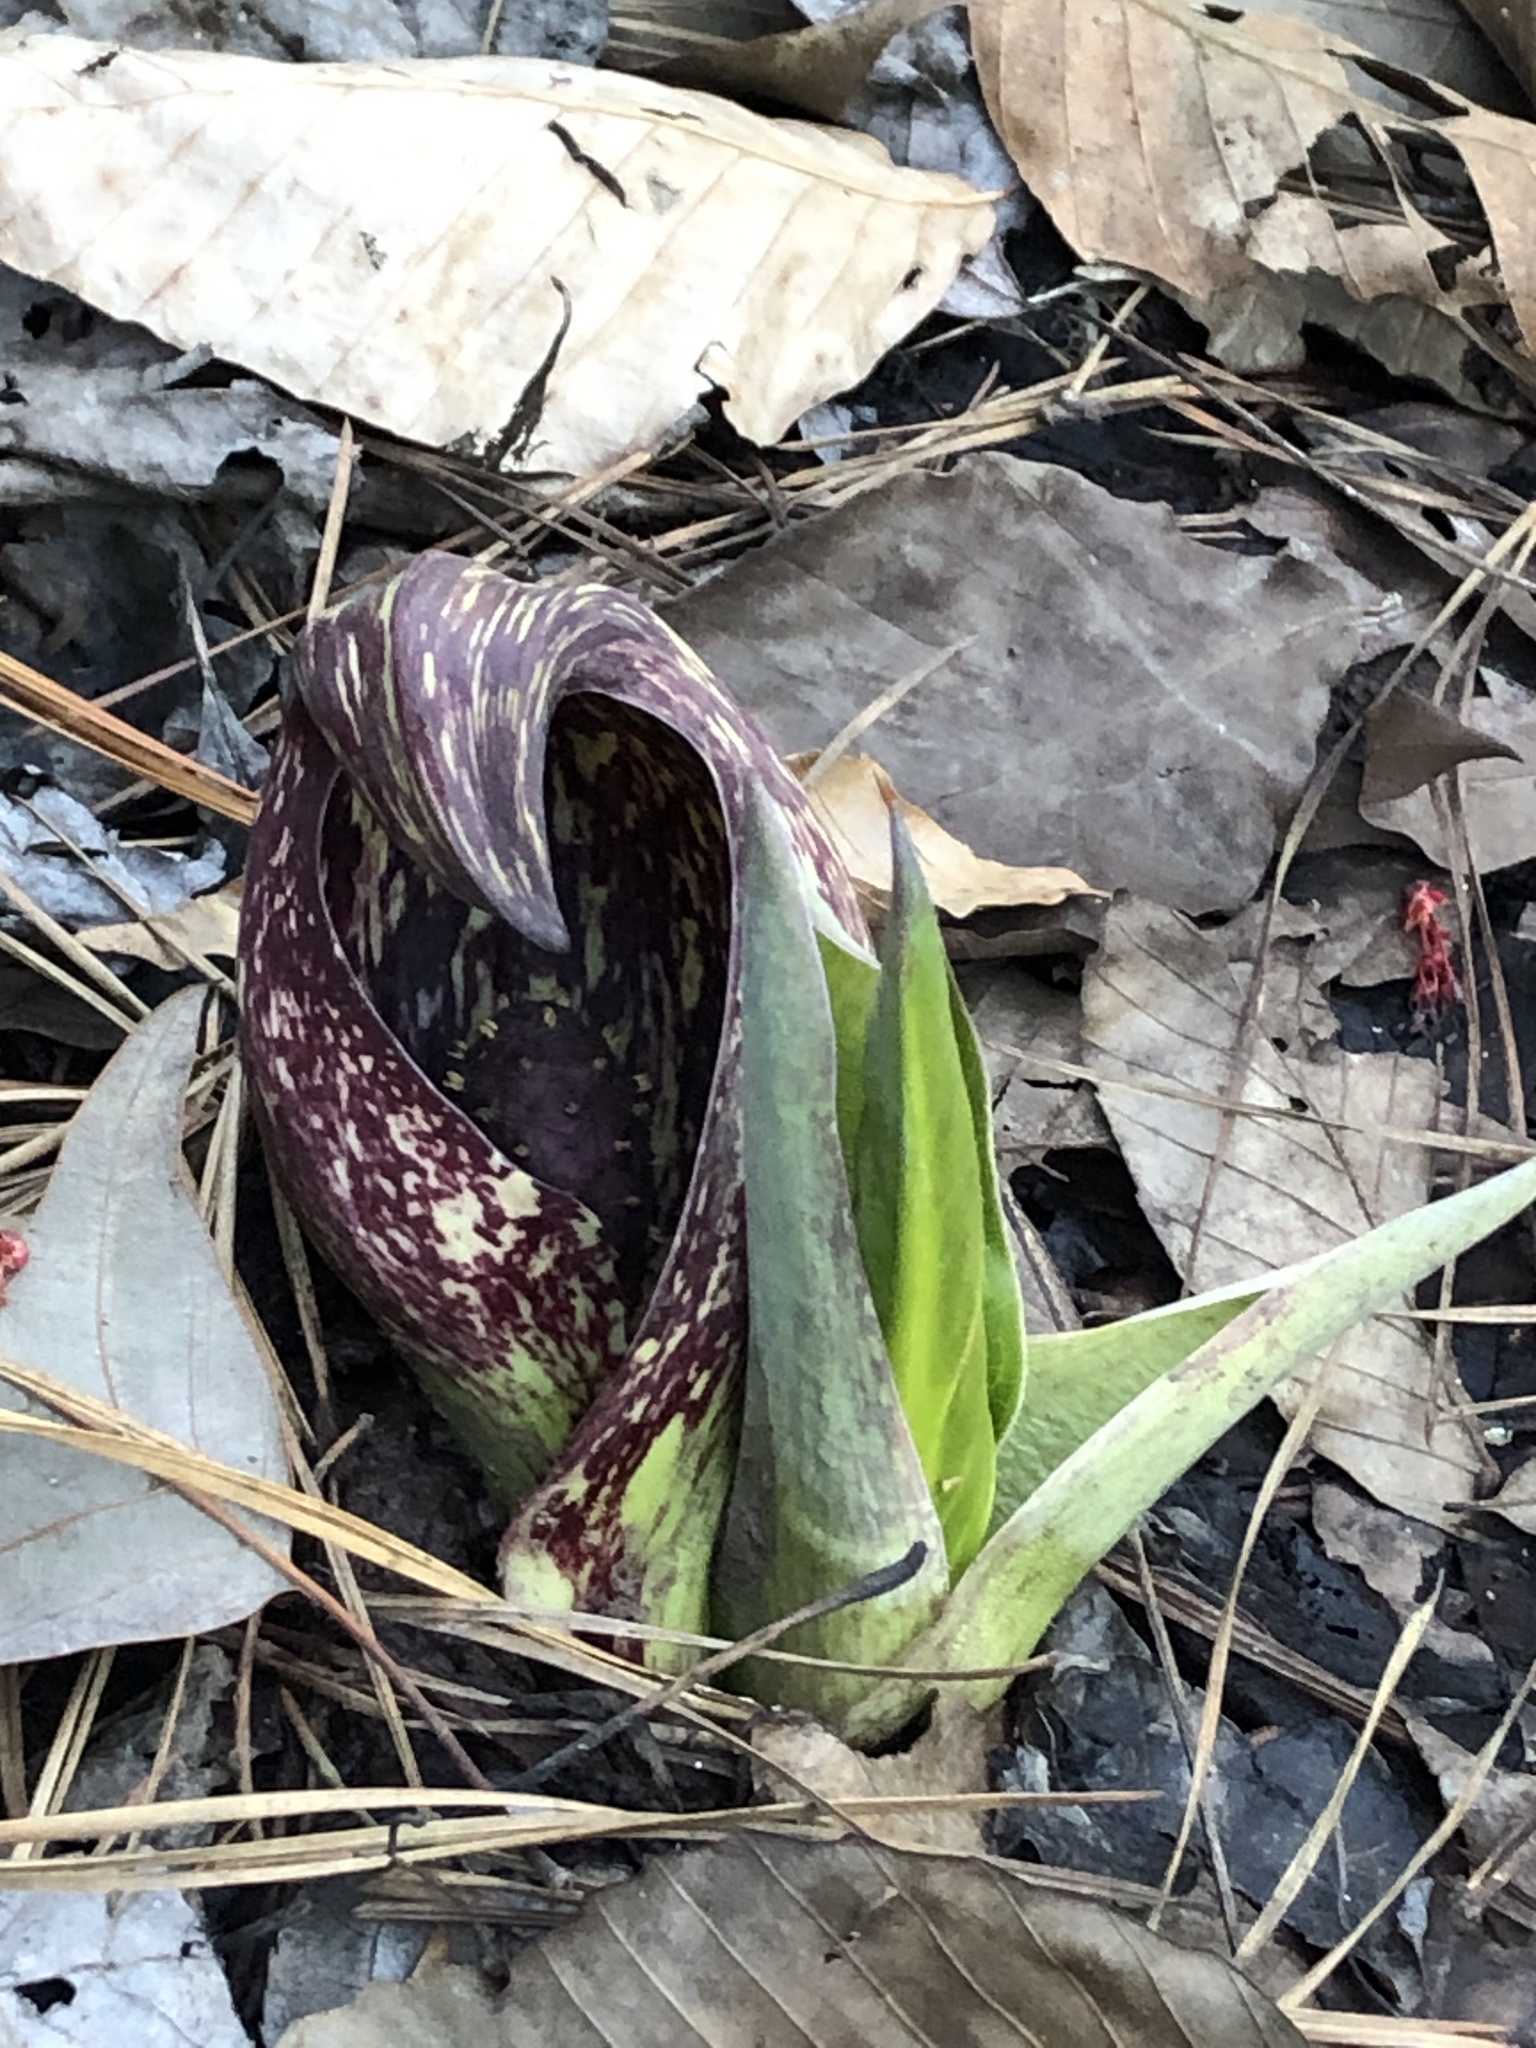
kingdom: Plantae
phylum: Tracheophyta
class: Liliopsida
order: Alismatales
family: Araceae
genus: Symplocarpus
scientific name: Symplocarpus foetidus
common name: Eastern skunk cabbage
